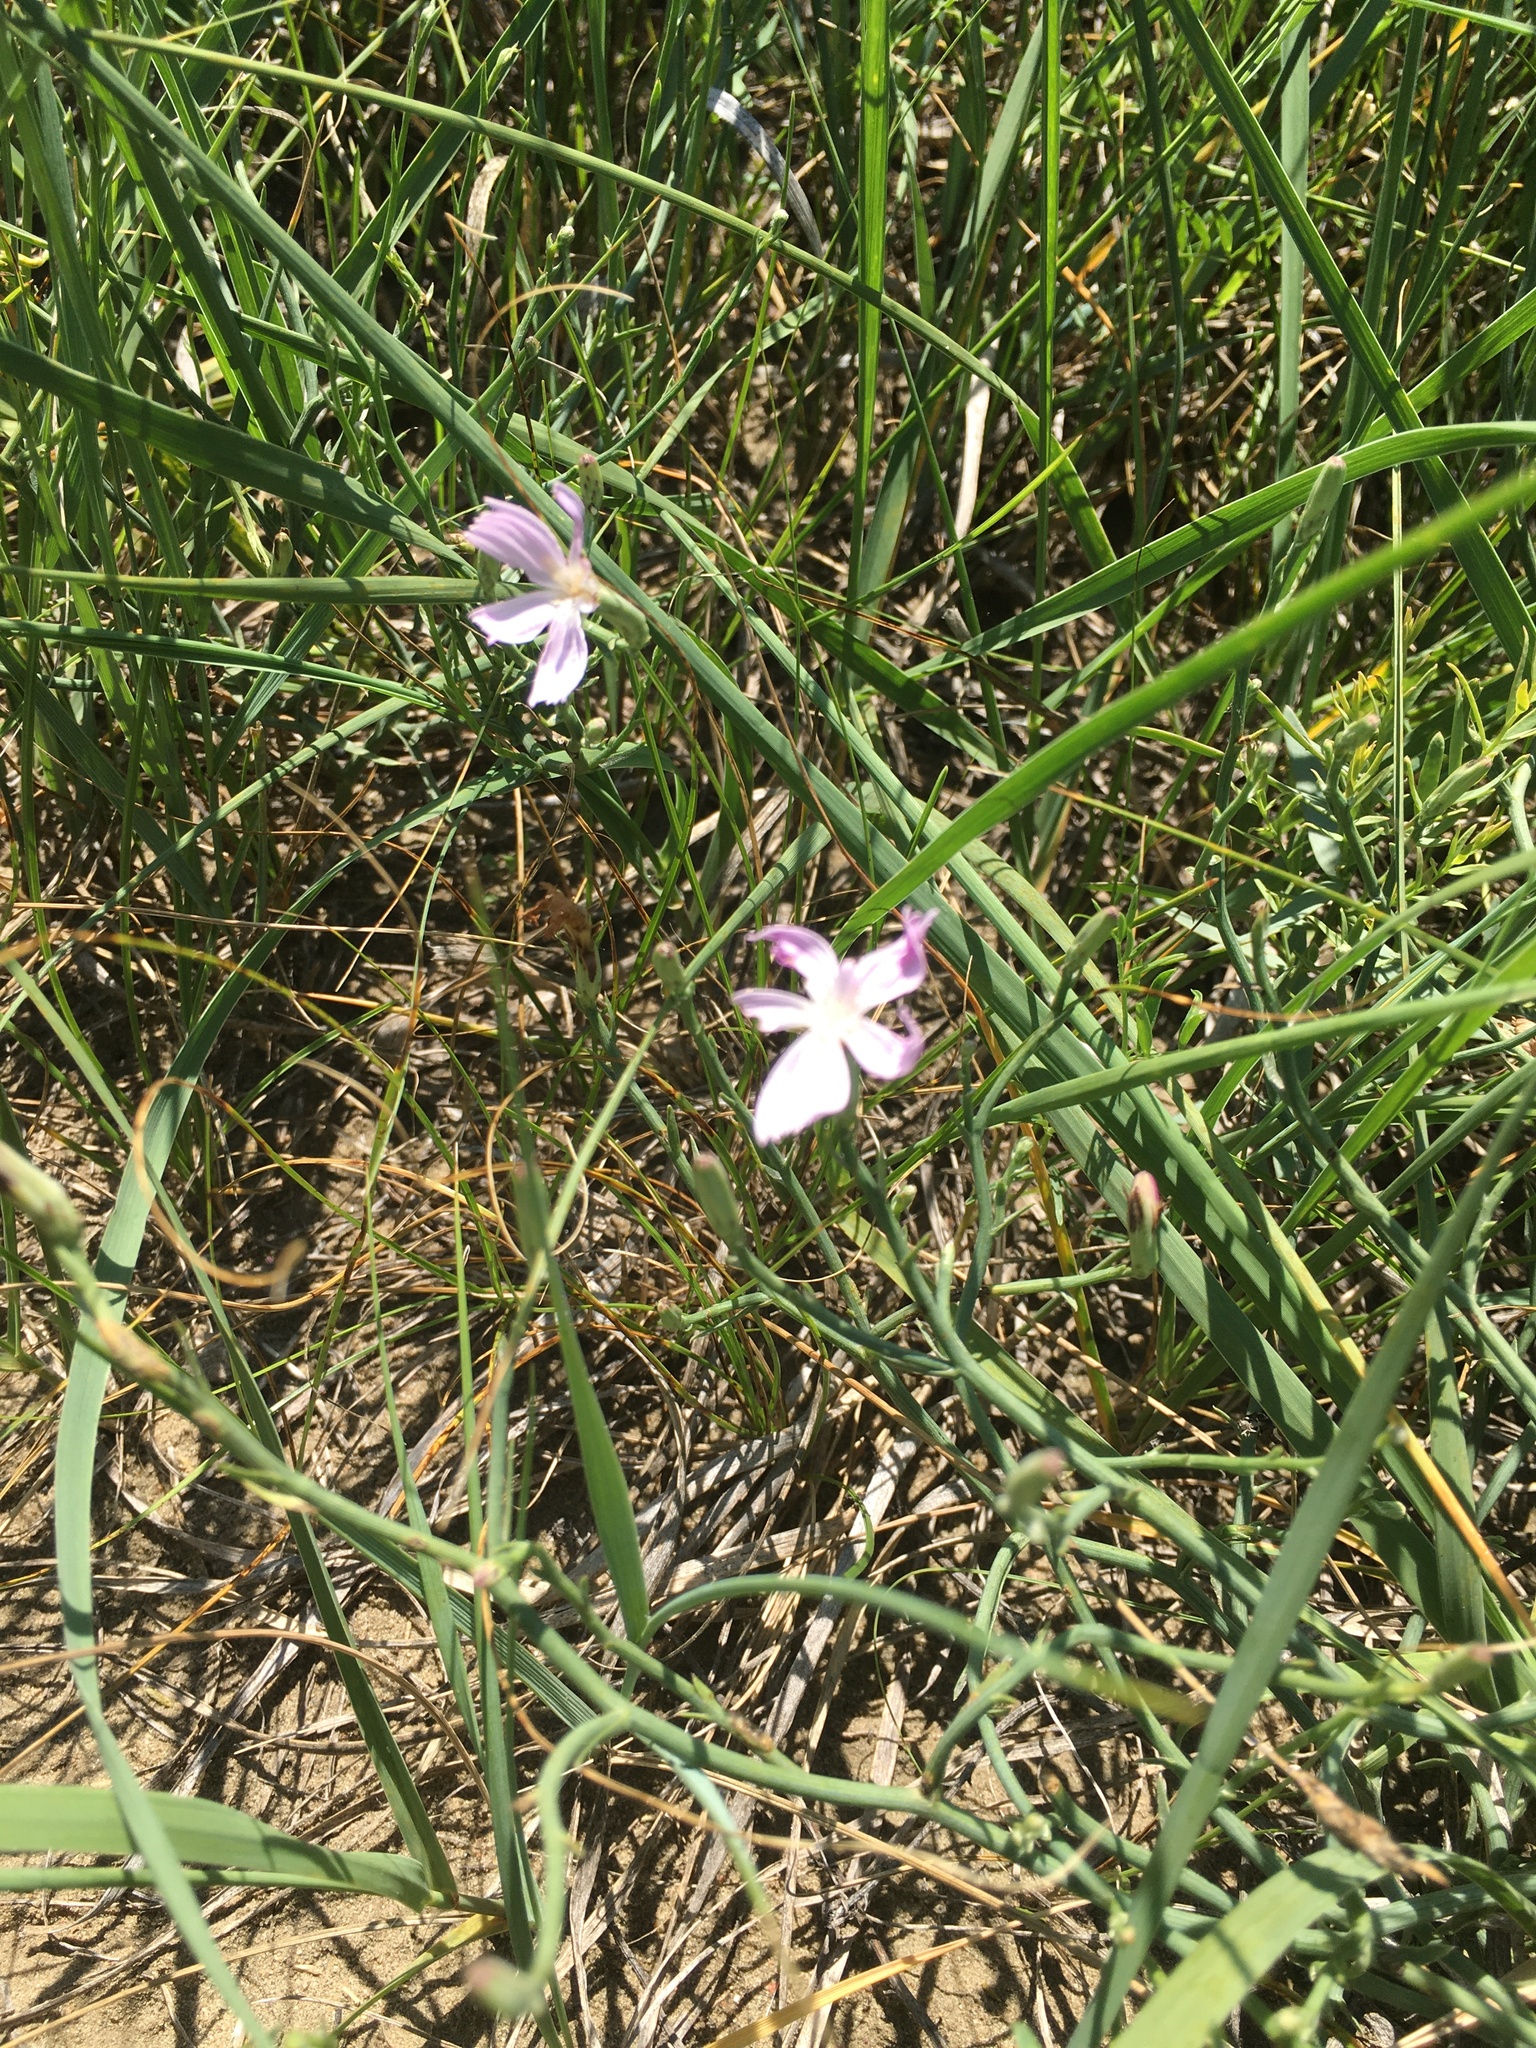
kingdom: Plantae
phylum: Tracheophyta
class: Magnoliopsida
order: Asterales
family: Asteraceae
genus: Lygodesmia
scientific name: Lygodesmia juncea
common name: Common skeletonweed
